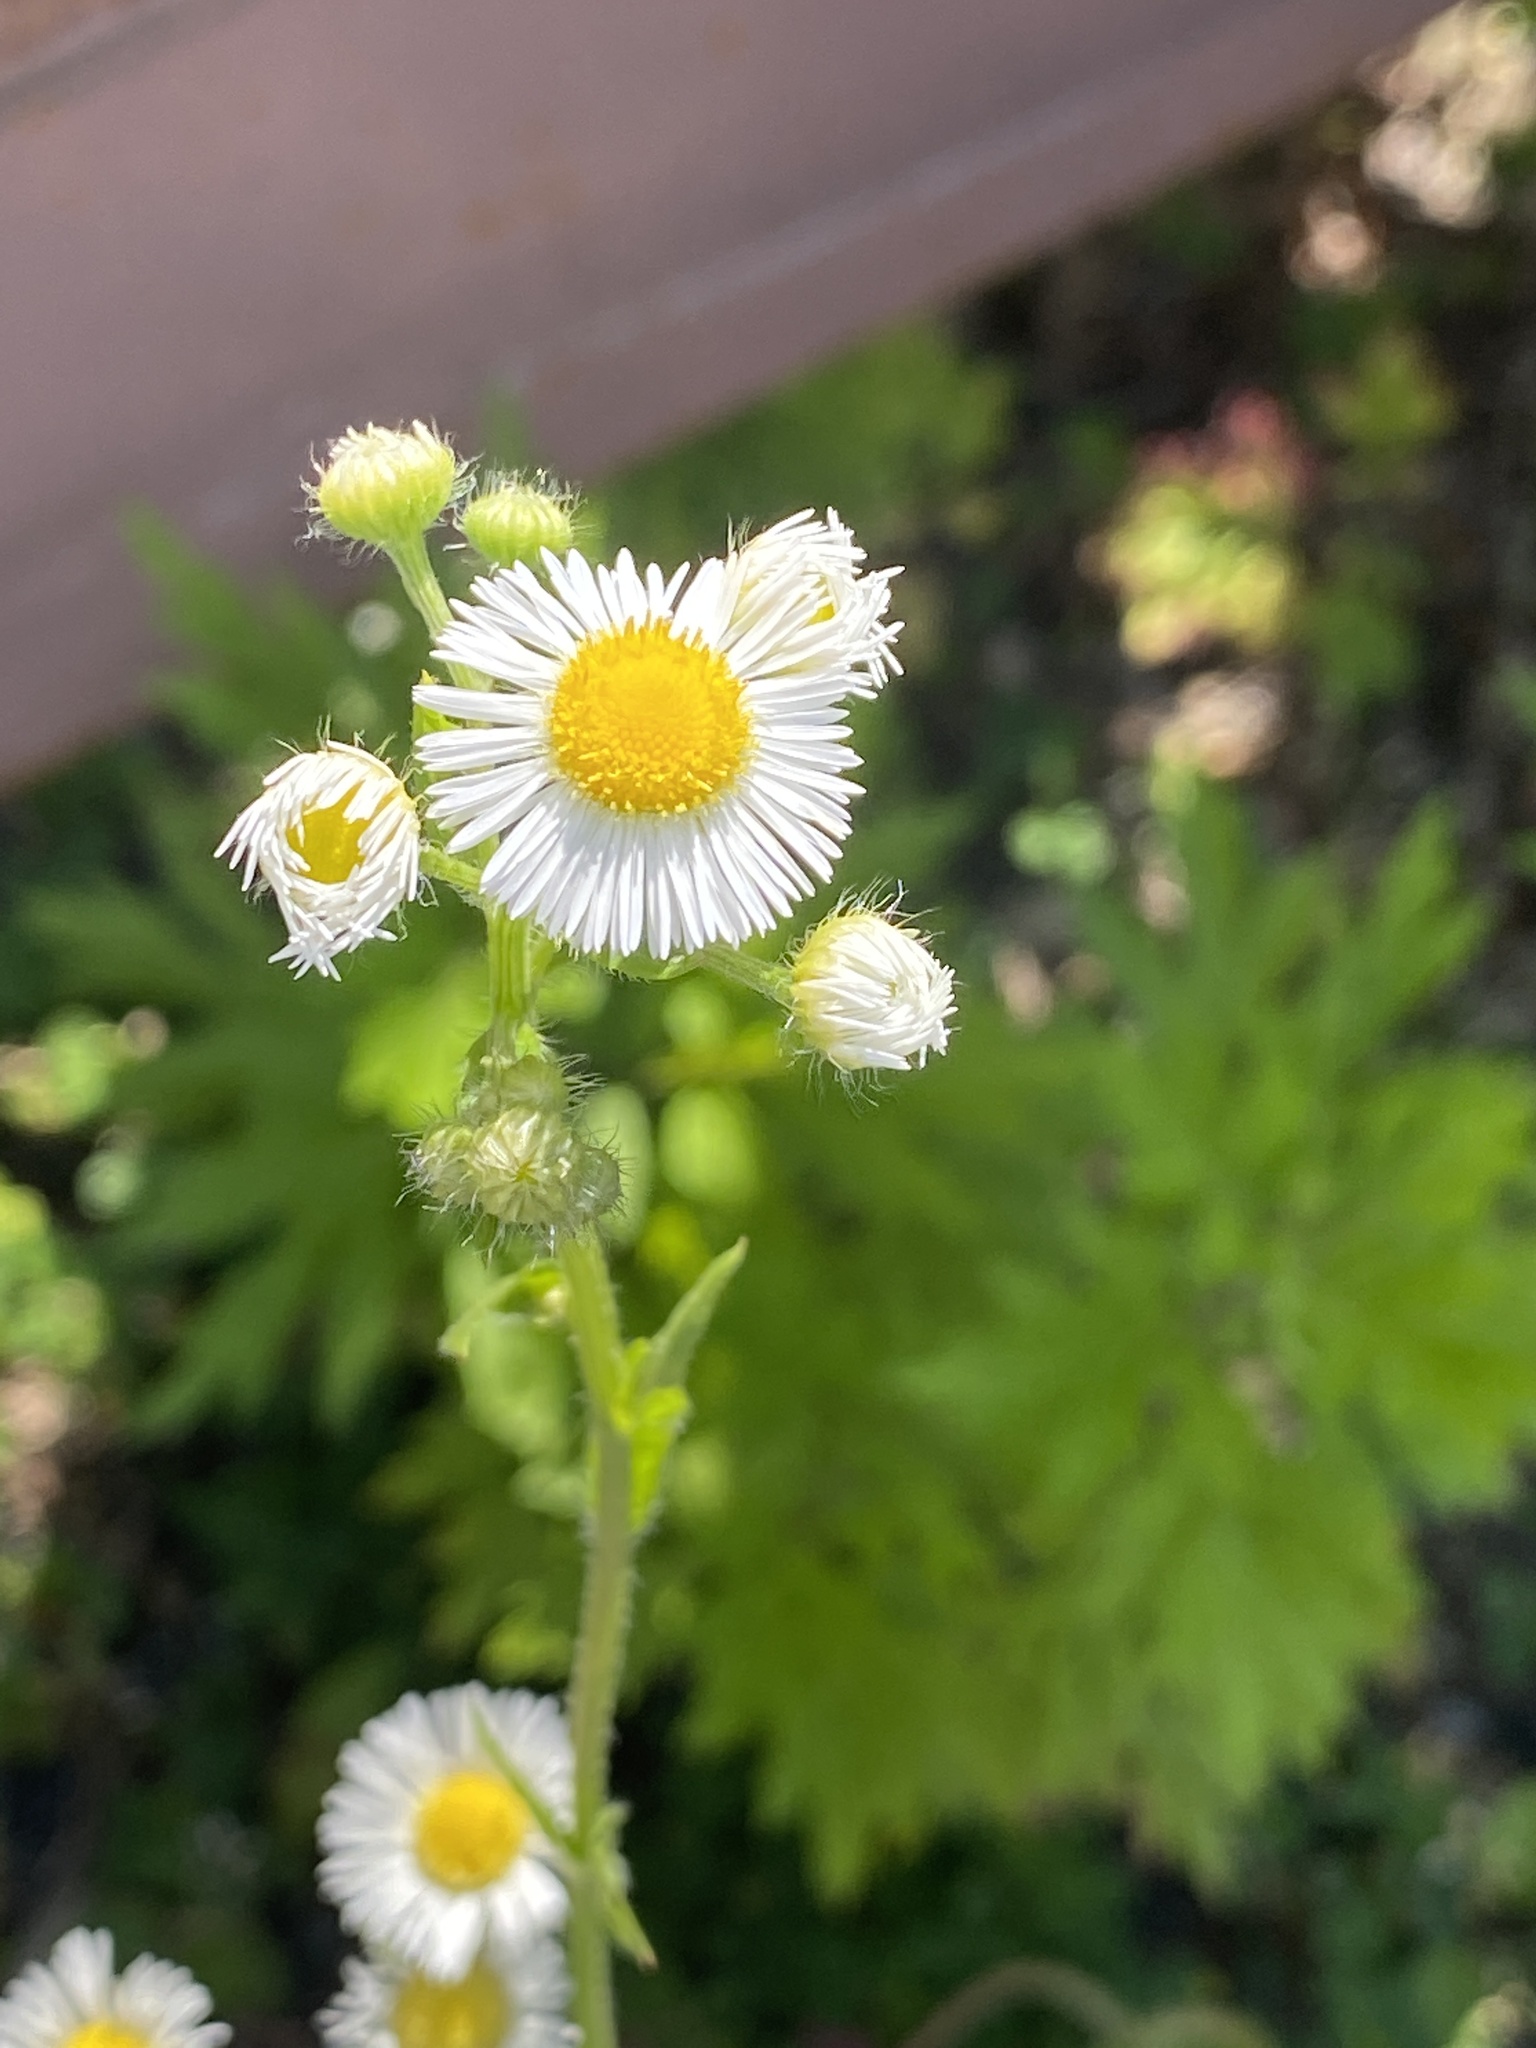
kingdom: Plantae
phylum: Tracheophyta
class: Magnoliopsida
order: Asterales
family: Asteraceae
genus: Erigeron
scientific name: Erigeron annuus
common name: Tall fleabane
